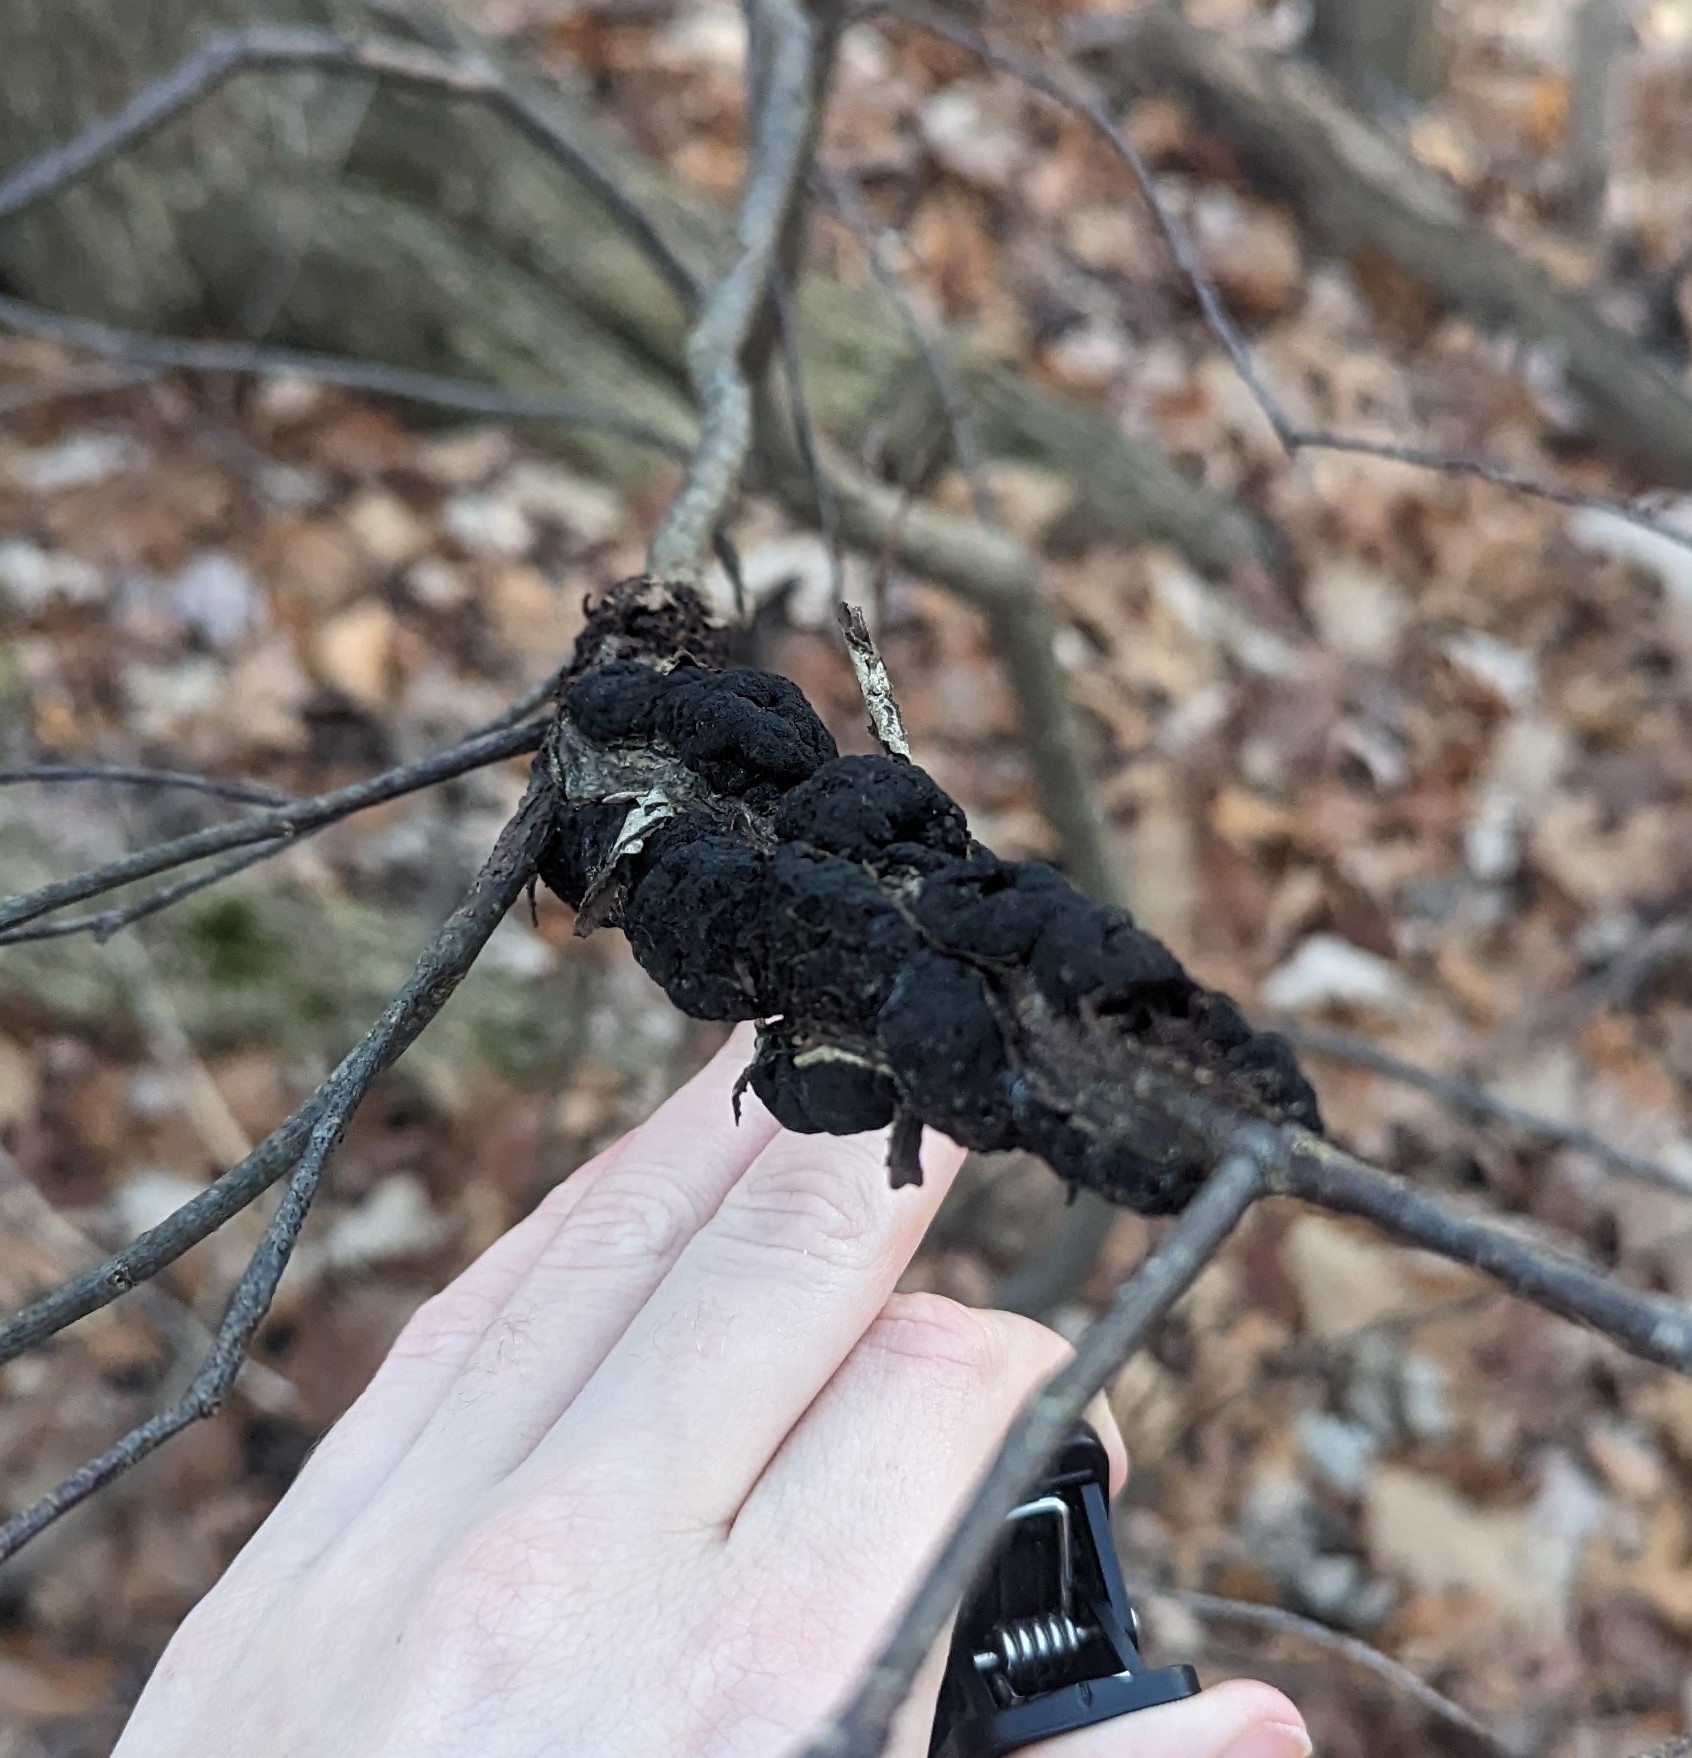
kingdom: Fungi
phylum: Ascomycota
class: Dothideomycetes
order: Venturiales
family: Venturiaceae
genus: Apiosporina
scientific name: Apiosporina morbosa
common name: Black knot
